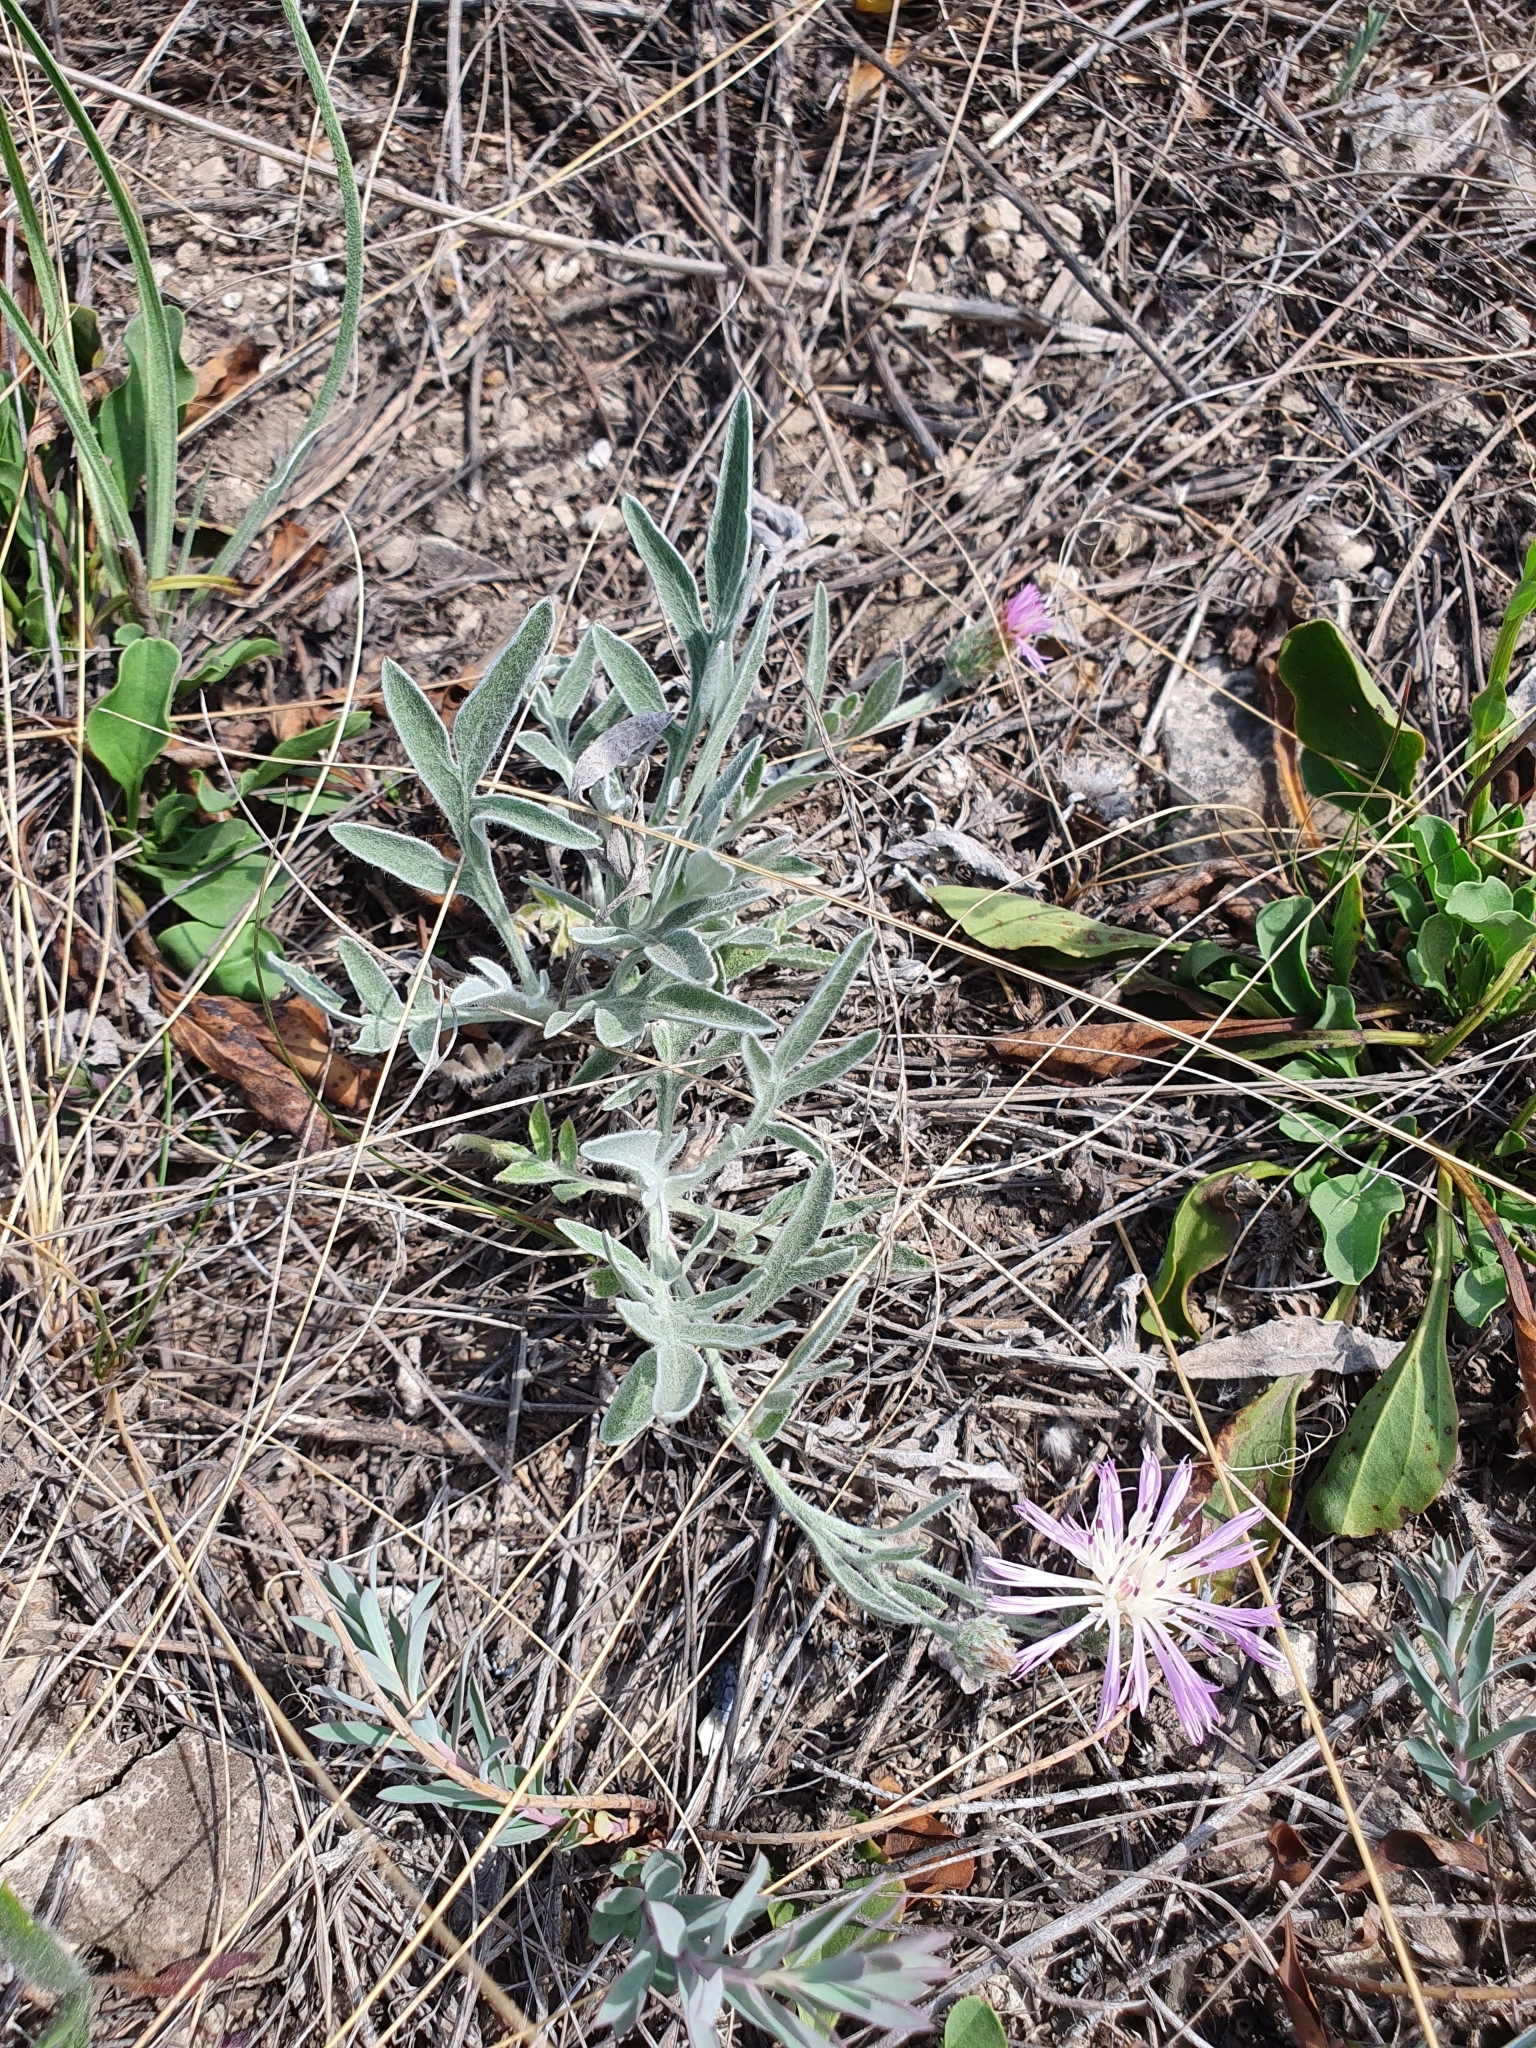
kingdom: Plantae
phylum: Tracheophyta
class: Magnoliopsida
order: Asterales
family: Asteraceae
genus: Psephellus
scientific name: Psephellus sumensis
